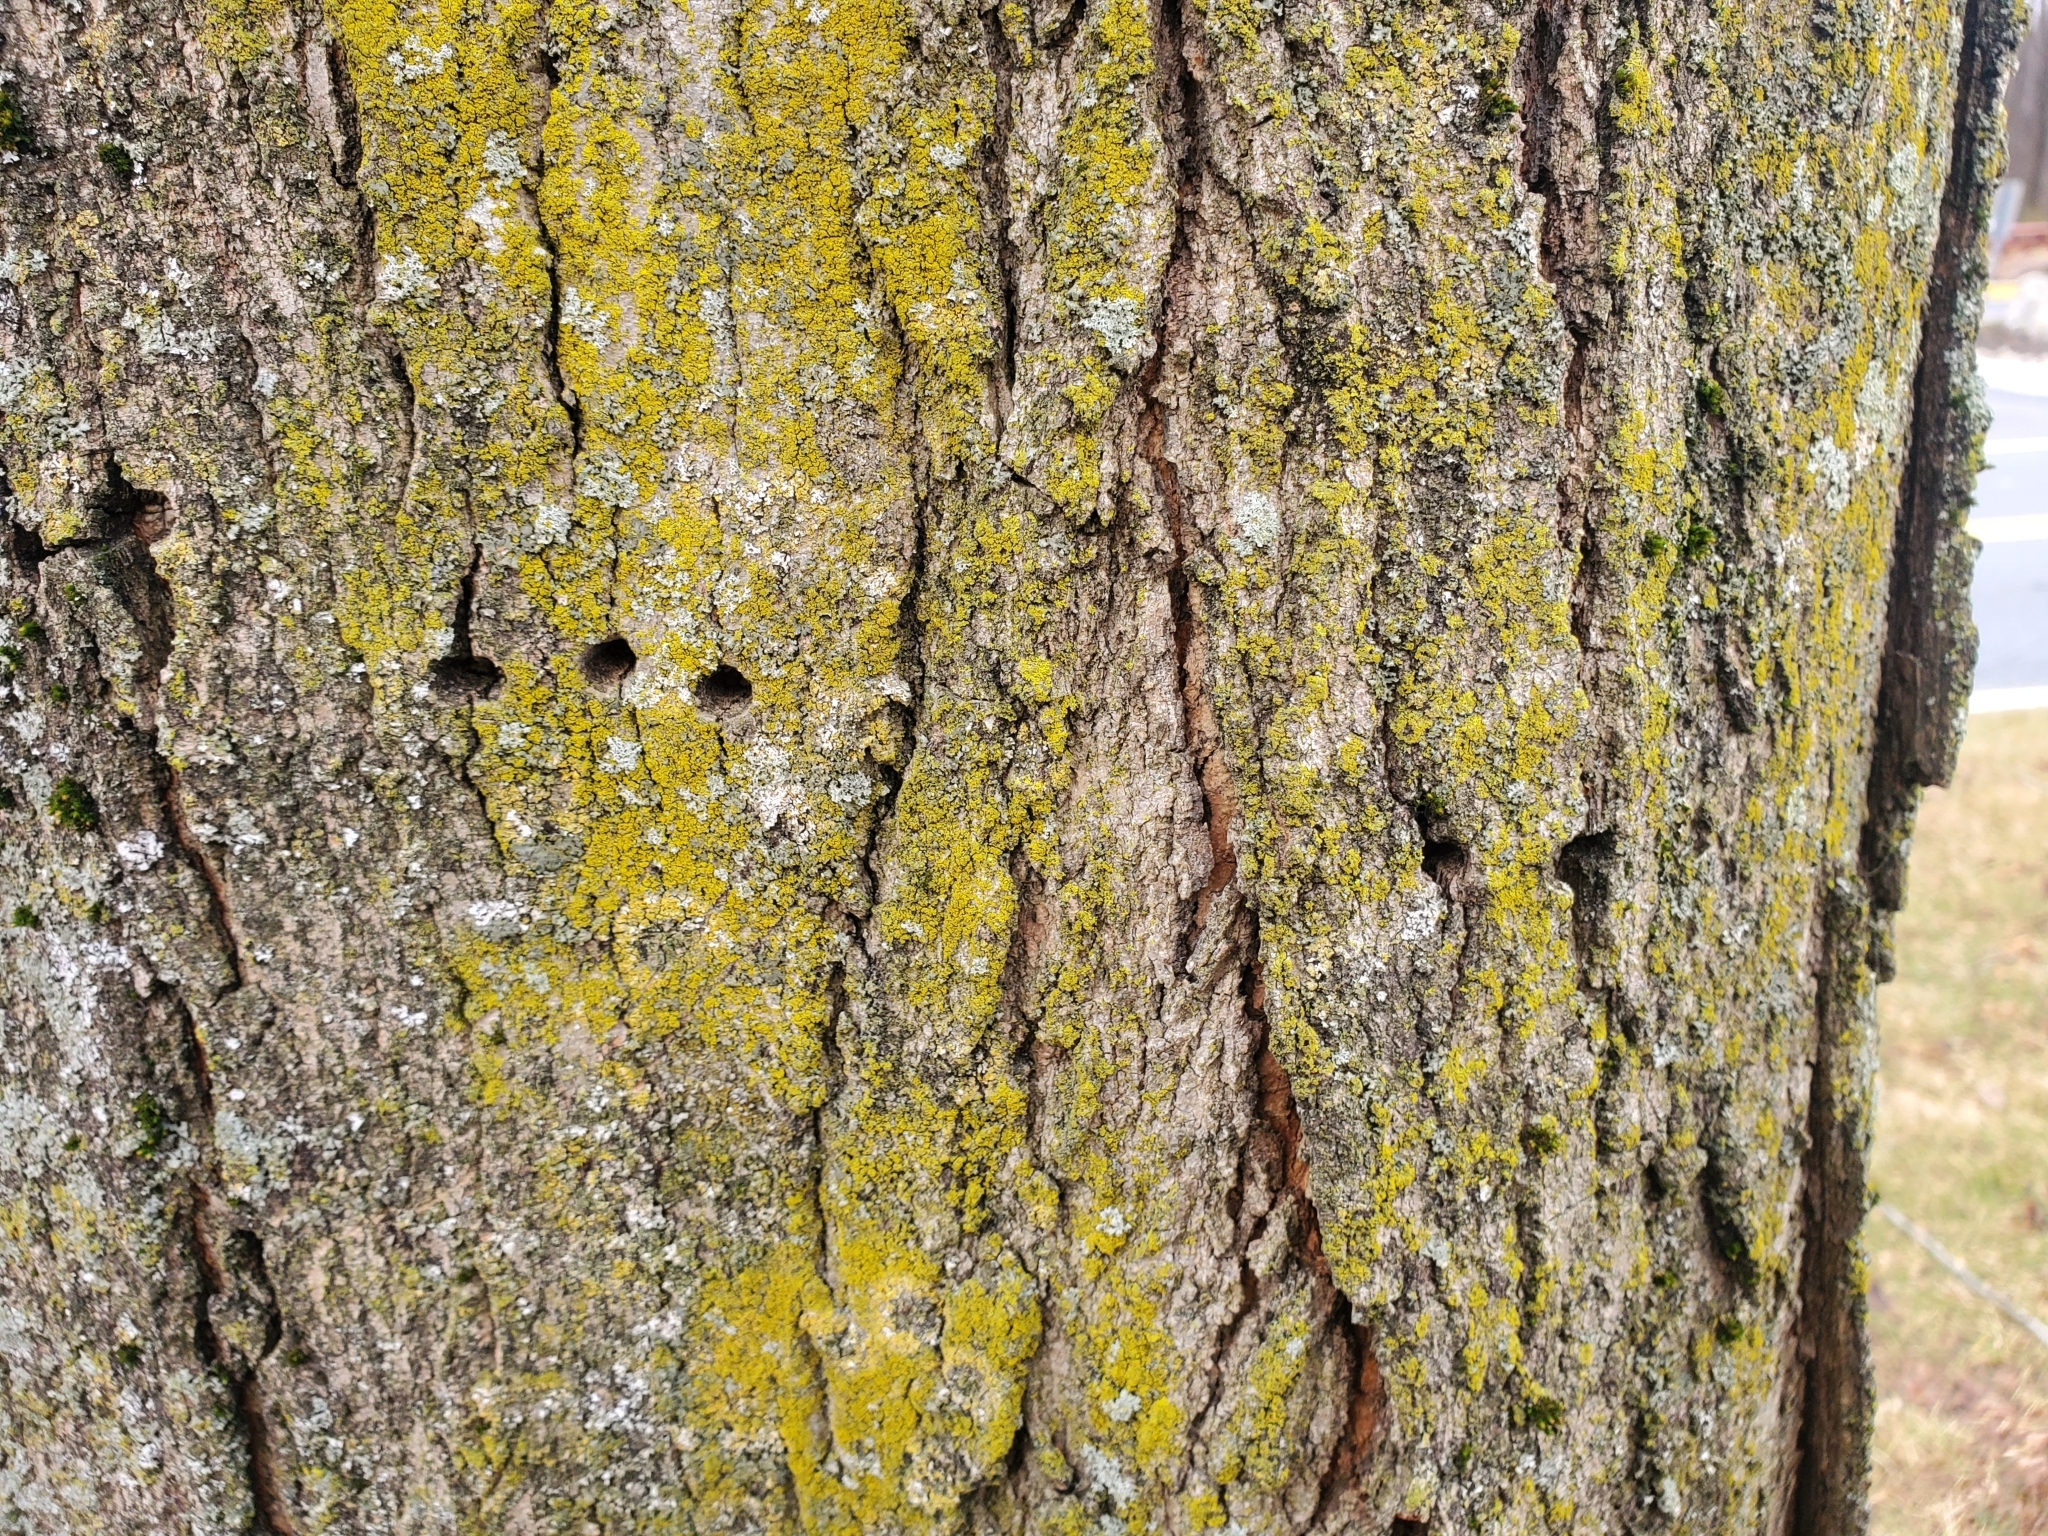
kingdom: Animalia
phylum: Chordata
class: Aves
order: Piciformes
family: Picidae
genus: Sphyrapicus
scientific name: Sphyrapicus varius
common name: Yellow-bellied sapsucker
